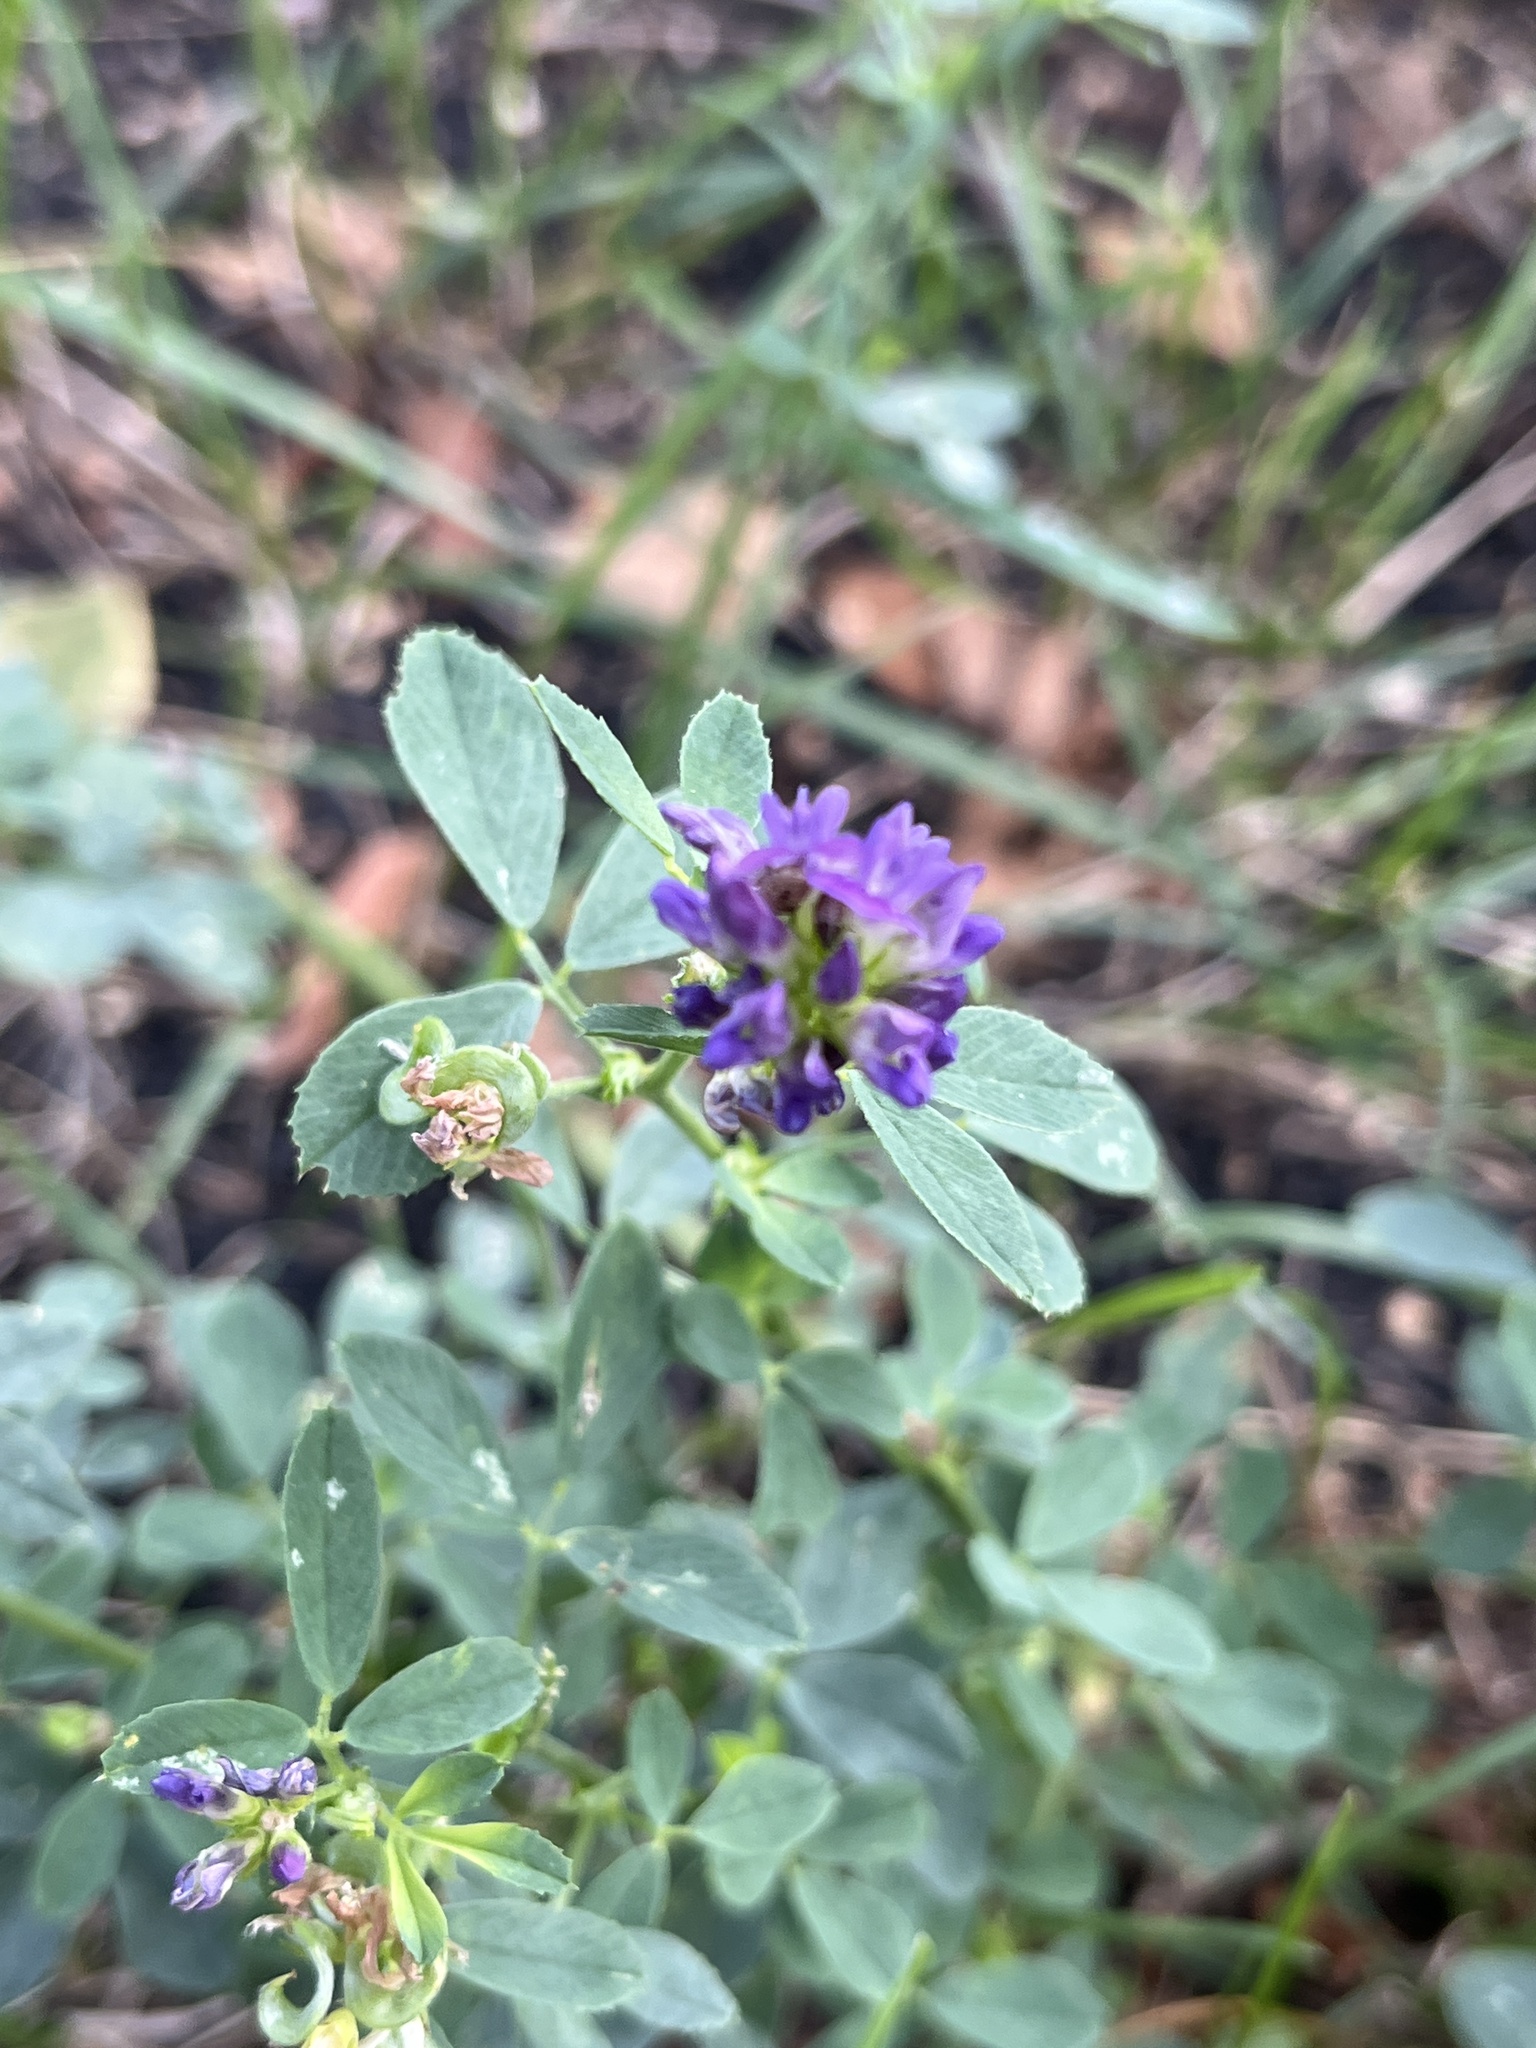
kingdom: Plantae
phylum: Tracheophyta
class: Magnoliopsida
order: Fabales
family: Fabaceae
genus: Medicago
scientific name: Medicago sativa
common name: Alfalfa
